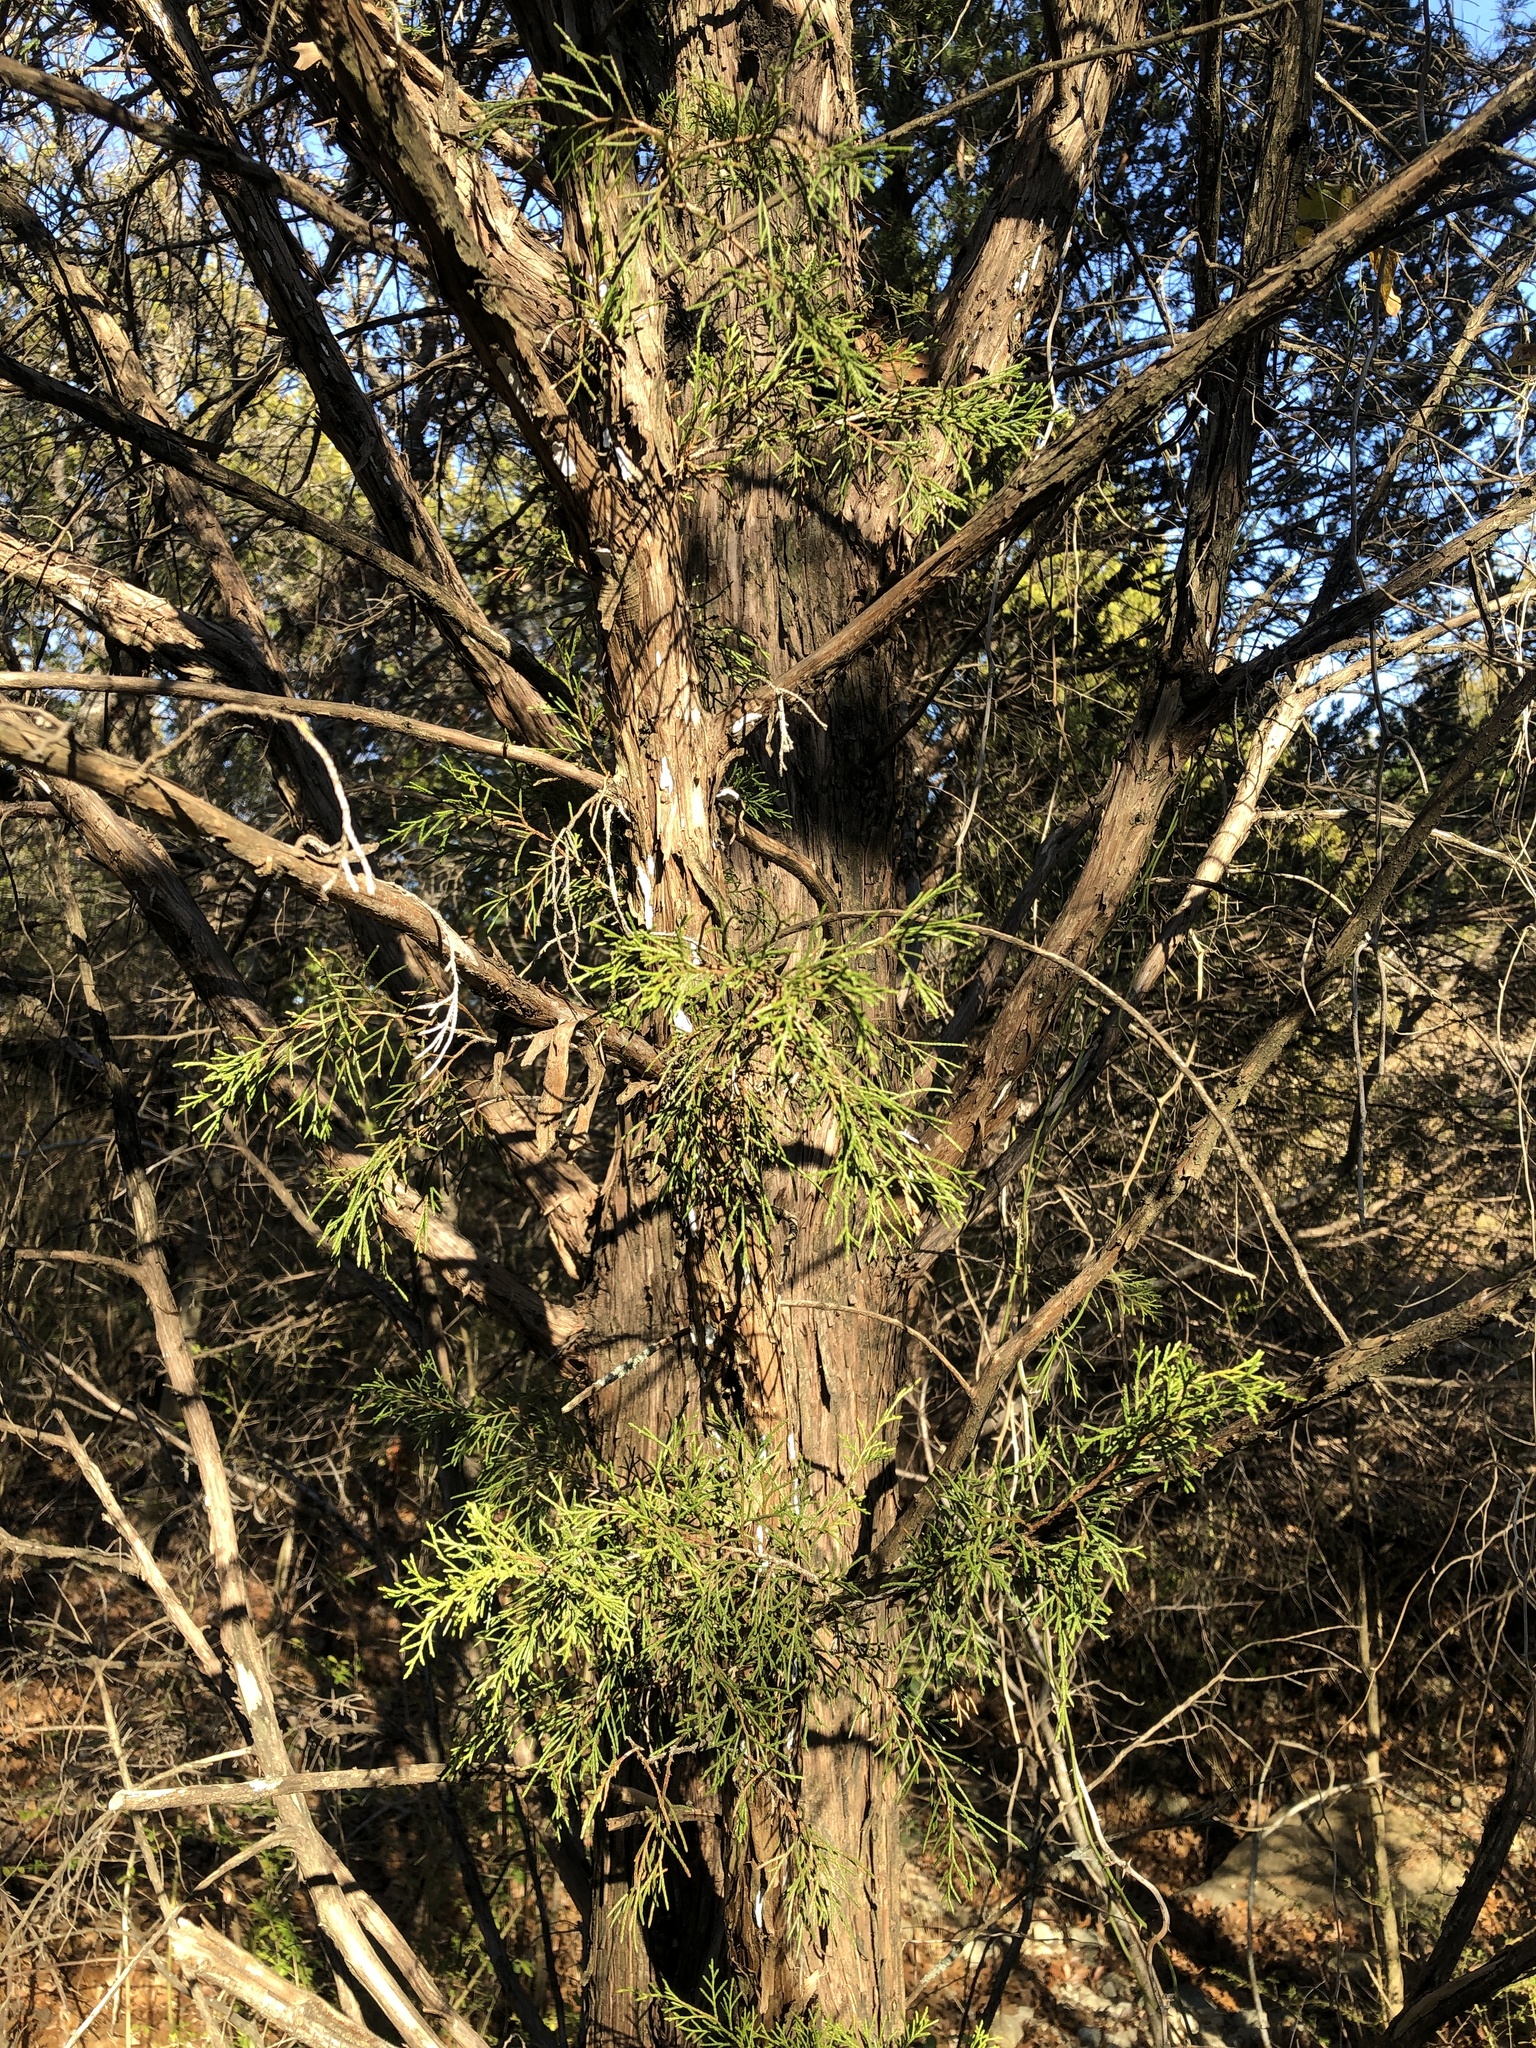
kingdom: Fungi
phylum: Basidiomycota
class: Agaricomycetes
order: Agaricales
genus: Dendrothele
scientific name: Dendrothele nivosa
